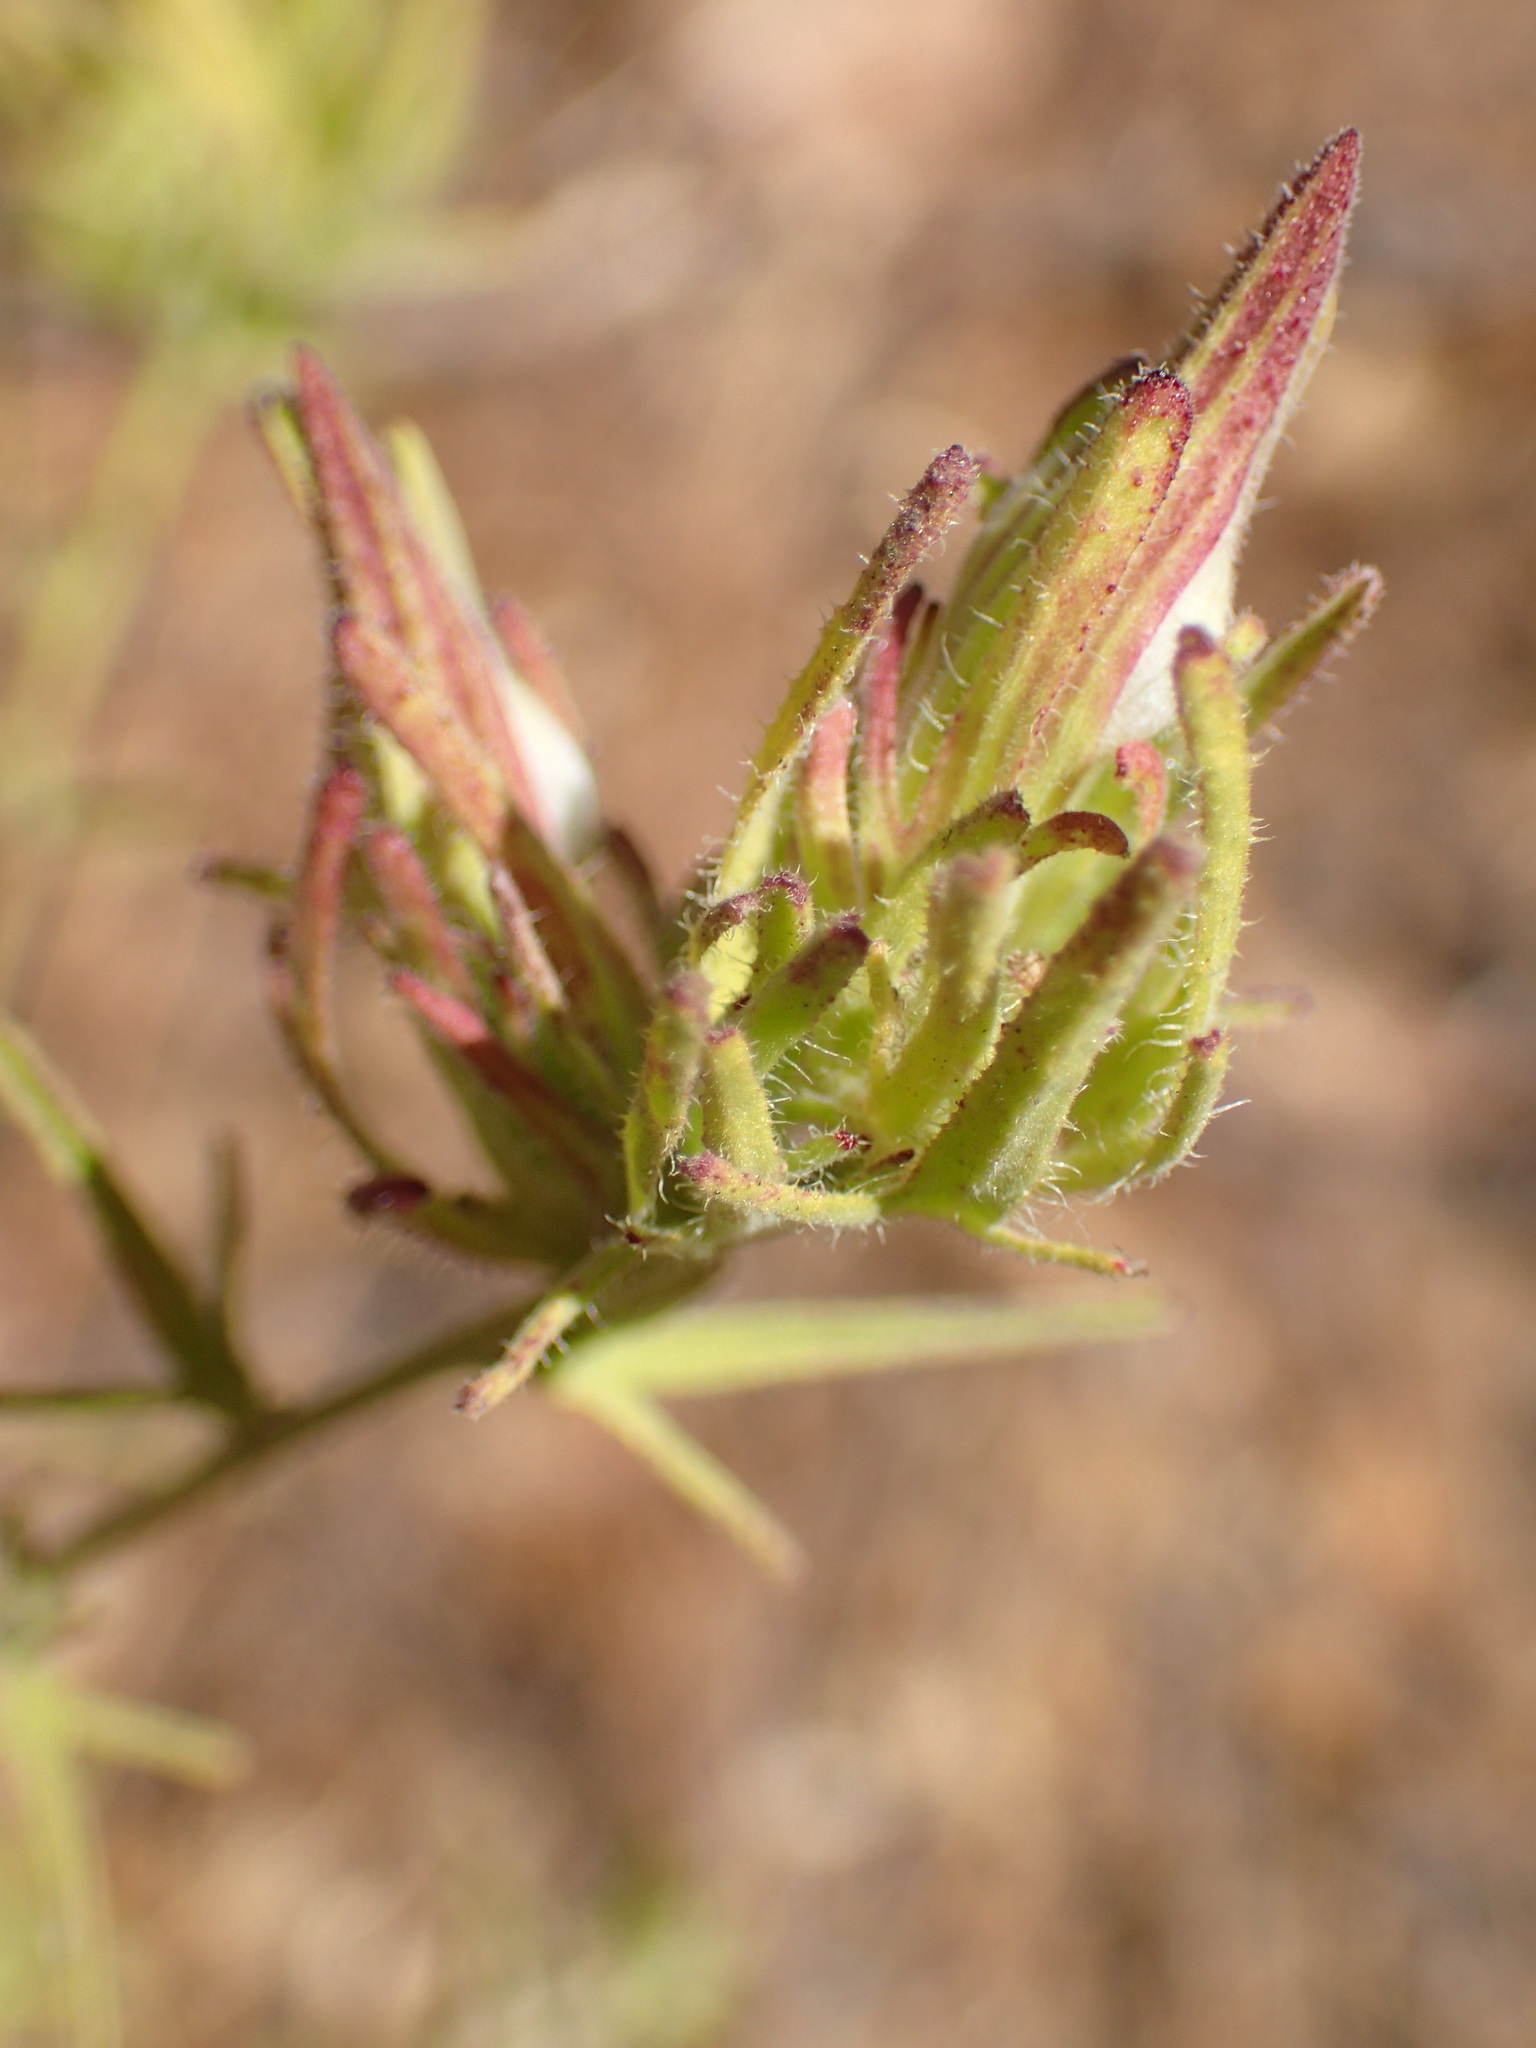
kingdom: Plantae
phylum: Tracheophyta
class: Magnoliopsida
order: Lamiales
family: Orobanchaceae
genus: Cordylanthus
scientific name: Cordylanthus rigidus
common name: Stiff-branch bird's-beak
